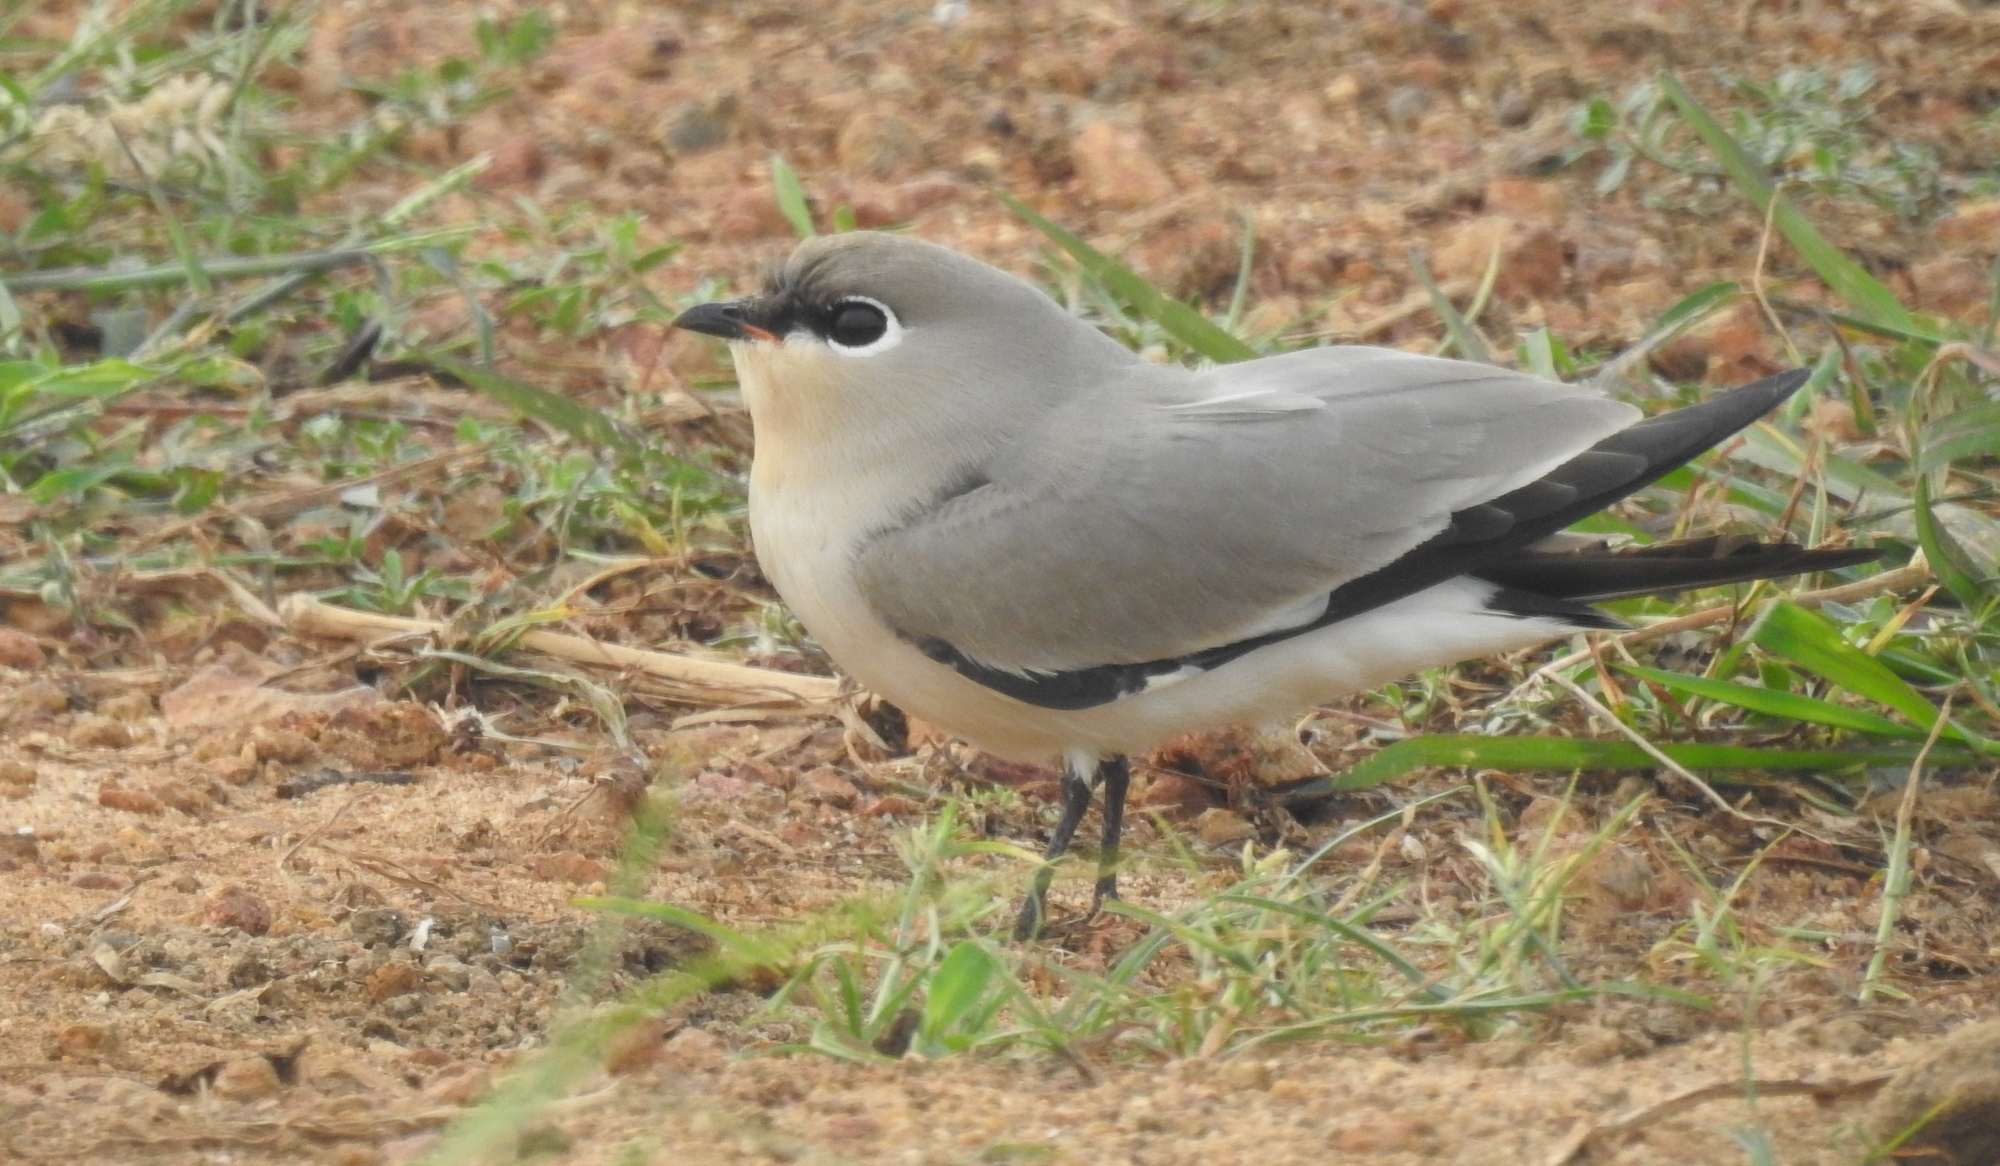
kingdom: Animalia
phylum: Chordata
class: Aves
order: Charadriiformes
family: Glareolidae
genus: Glareola
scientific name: Glareola lactea
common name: Small pratincole
